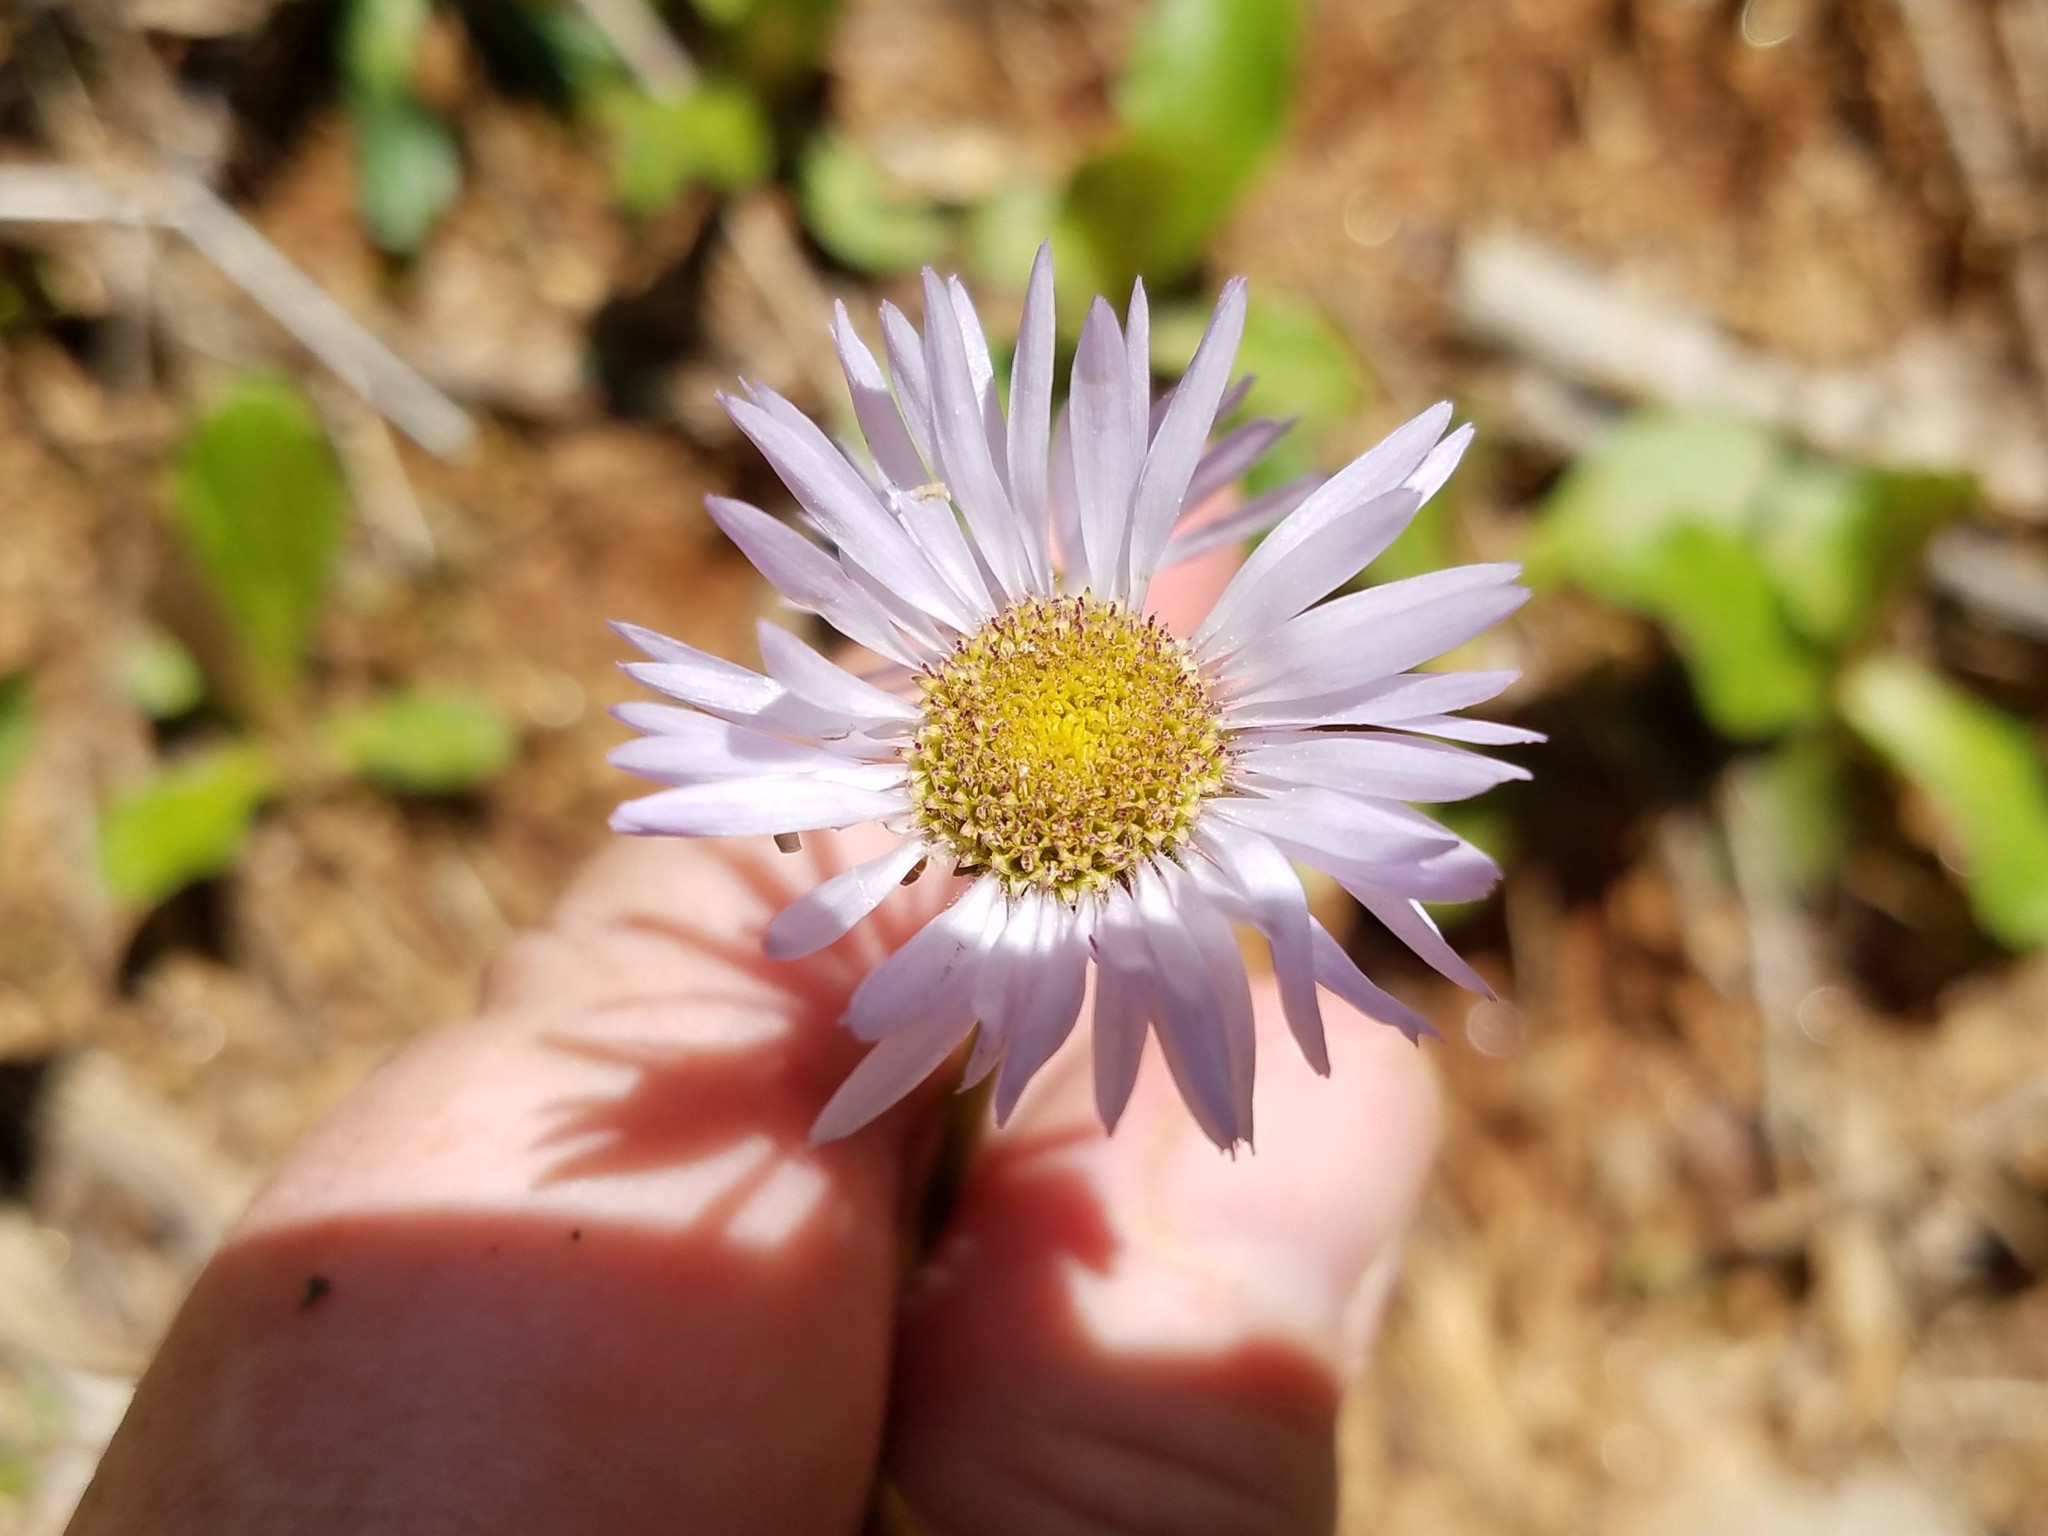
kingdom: Plantae
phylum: Tracheophyta
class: Magnoliopsida
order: Asterales
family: Asteraceae
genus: Erigeron
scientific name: Erigeron pulchellus
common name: Hairy fleabane
